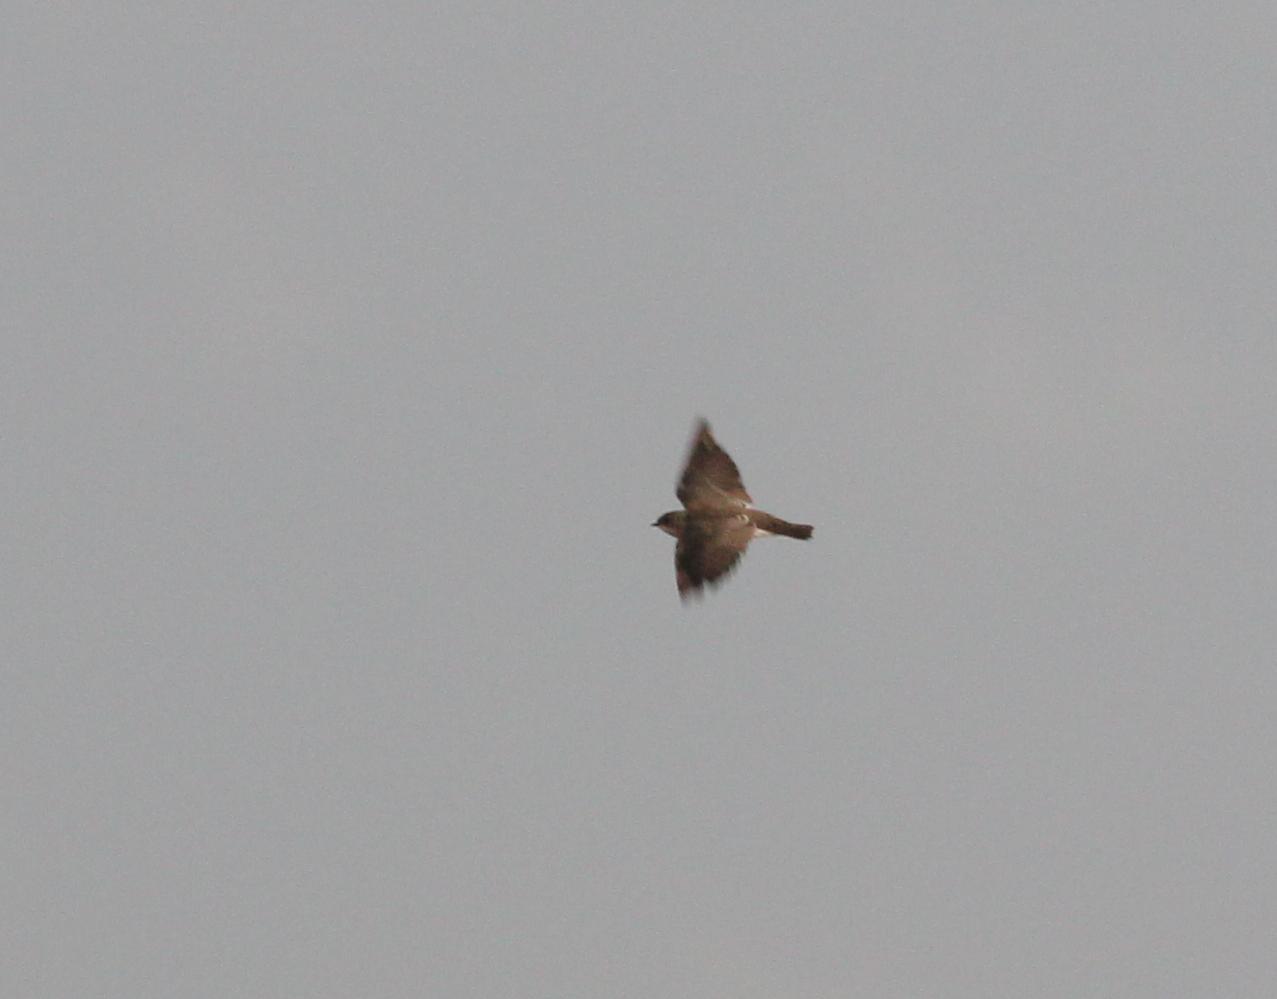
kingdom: Animalia
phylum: Chordata
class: Aves
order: Passeriformes
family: Hirundinidae
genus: Stelgidopteryx
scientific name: Stelgidopteryx serripennis
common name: Northern rough-winged swallow
